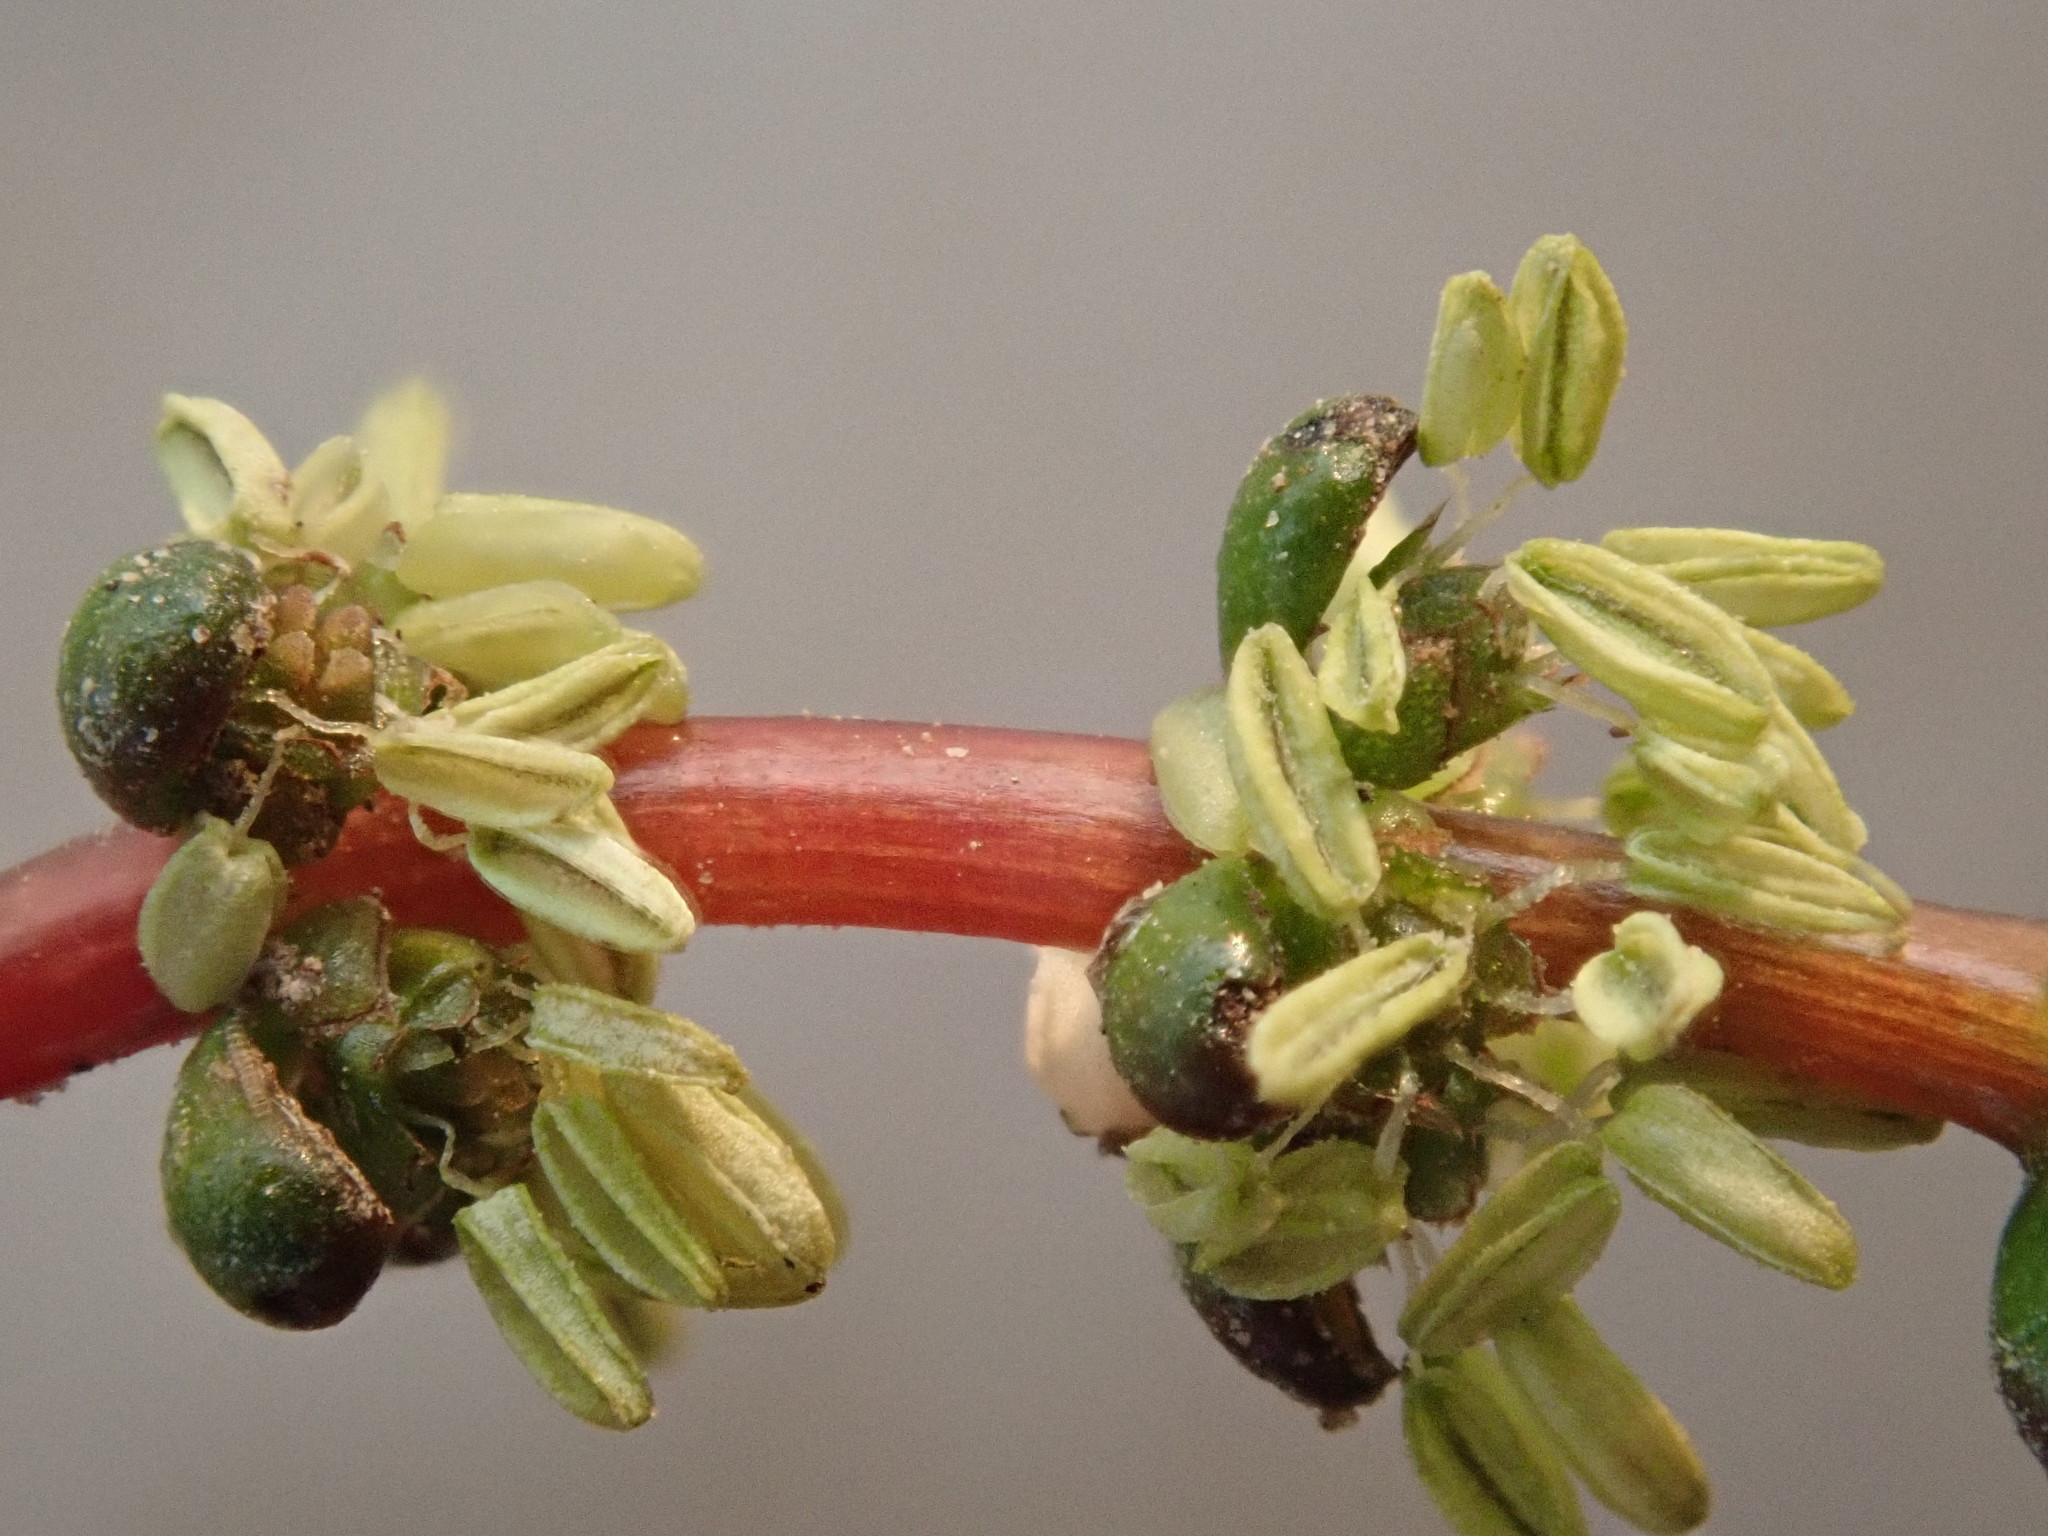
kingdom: Plantae
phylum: Tracheophyta
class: Magnoliopsida
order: Saxifragales
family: Haloragaceae
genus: Myriophyllum
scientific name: Myriophyllum sibiricum
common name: Siberian water-milfoil
